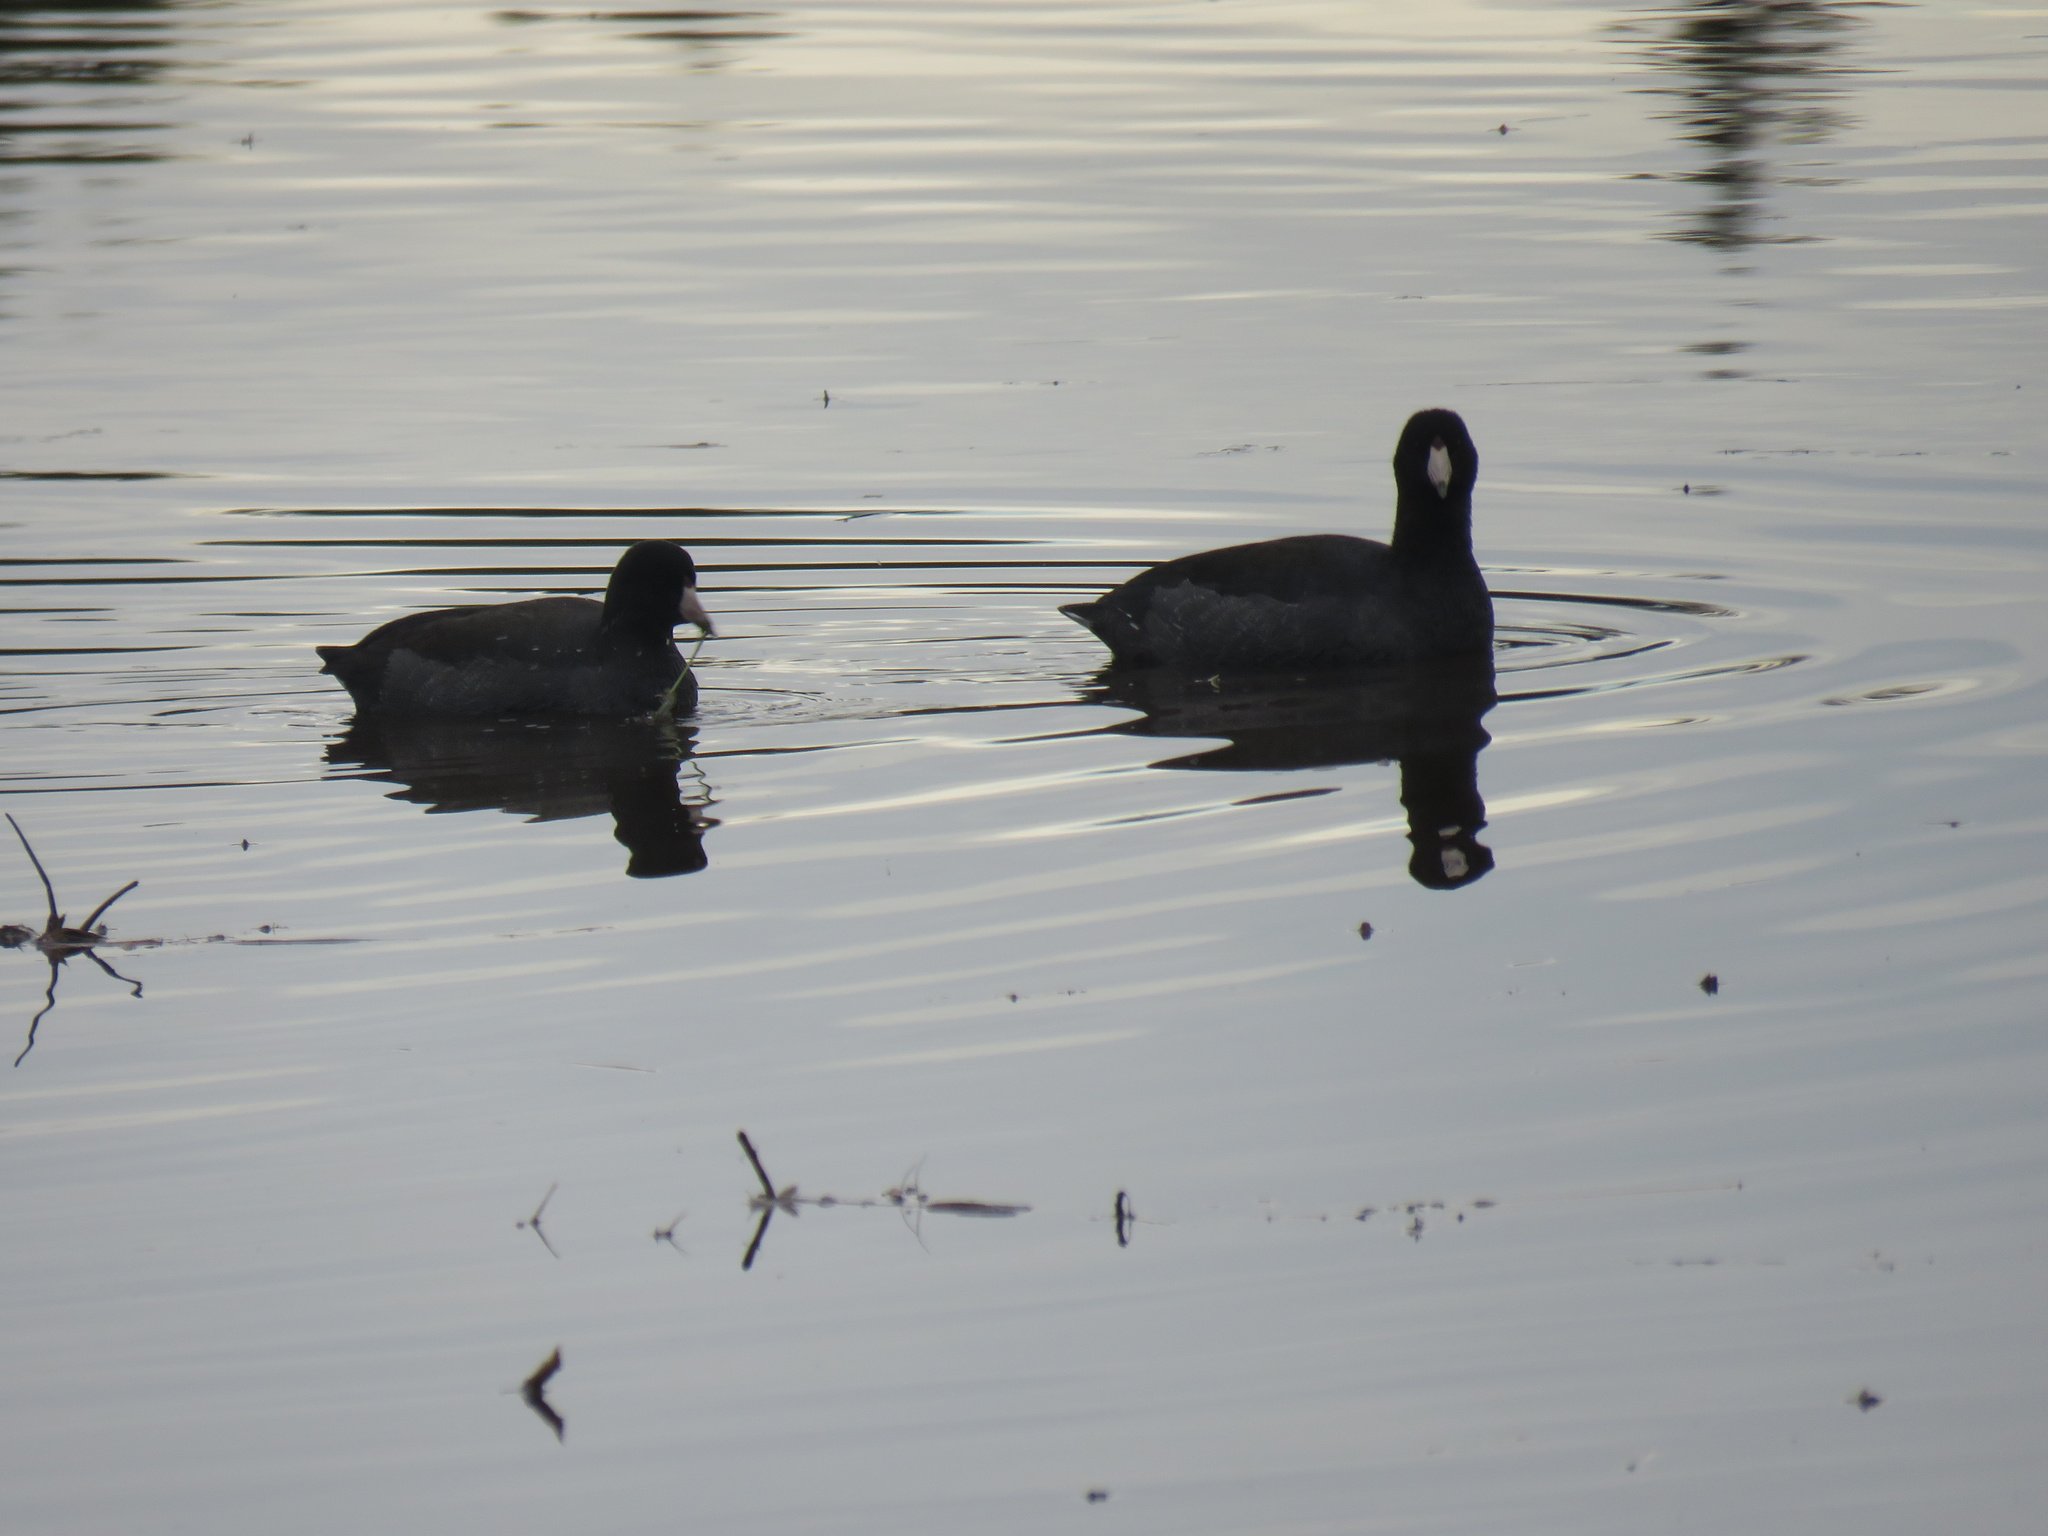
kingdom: Animalia
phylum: Chordata
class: Aves
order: Gruiformes
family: Rallidae
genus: Fulica
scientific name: Fulica americana
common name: American coot
